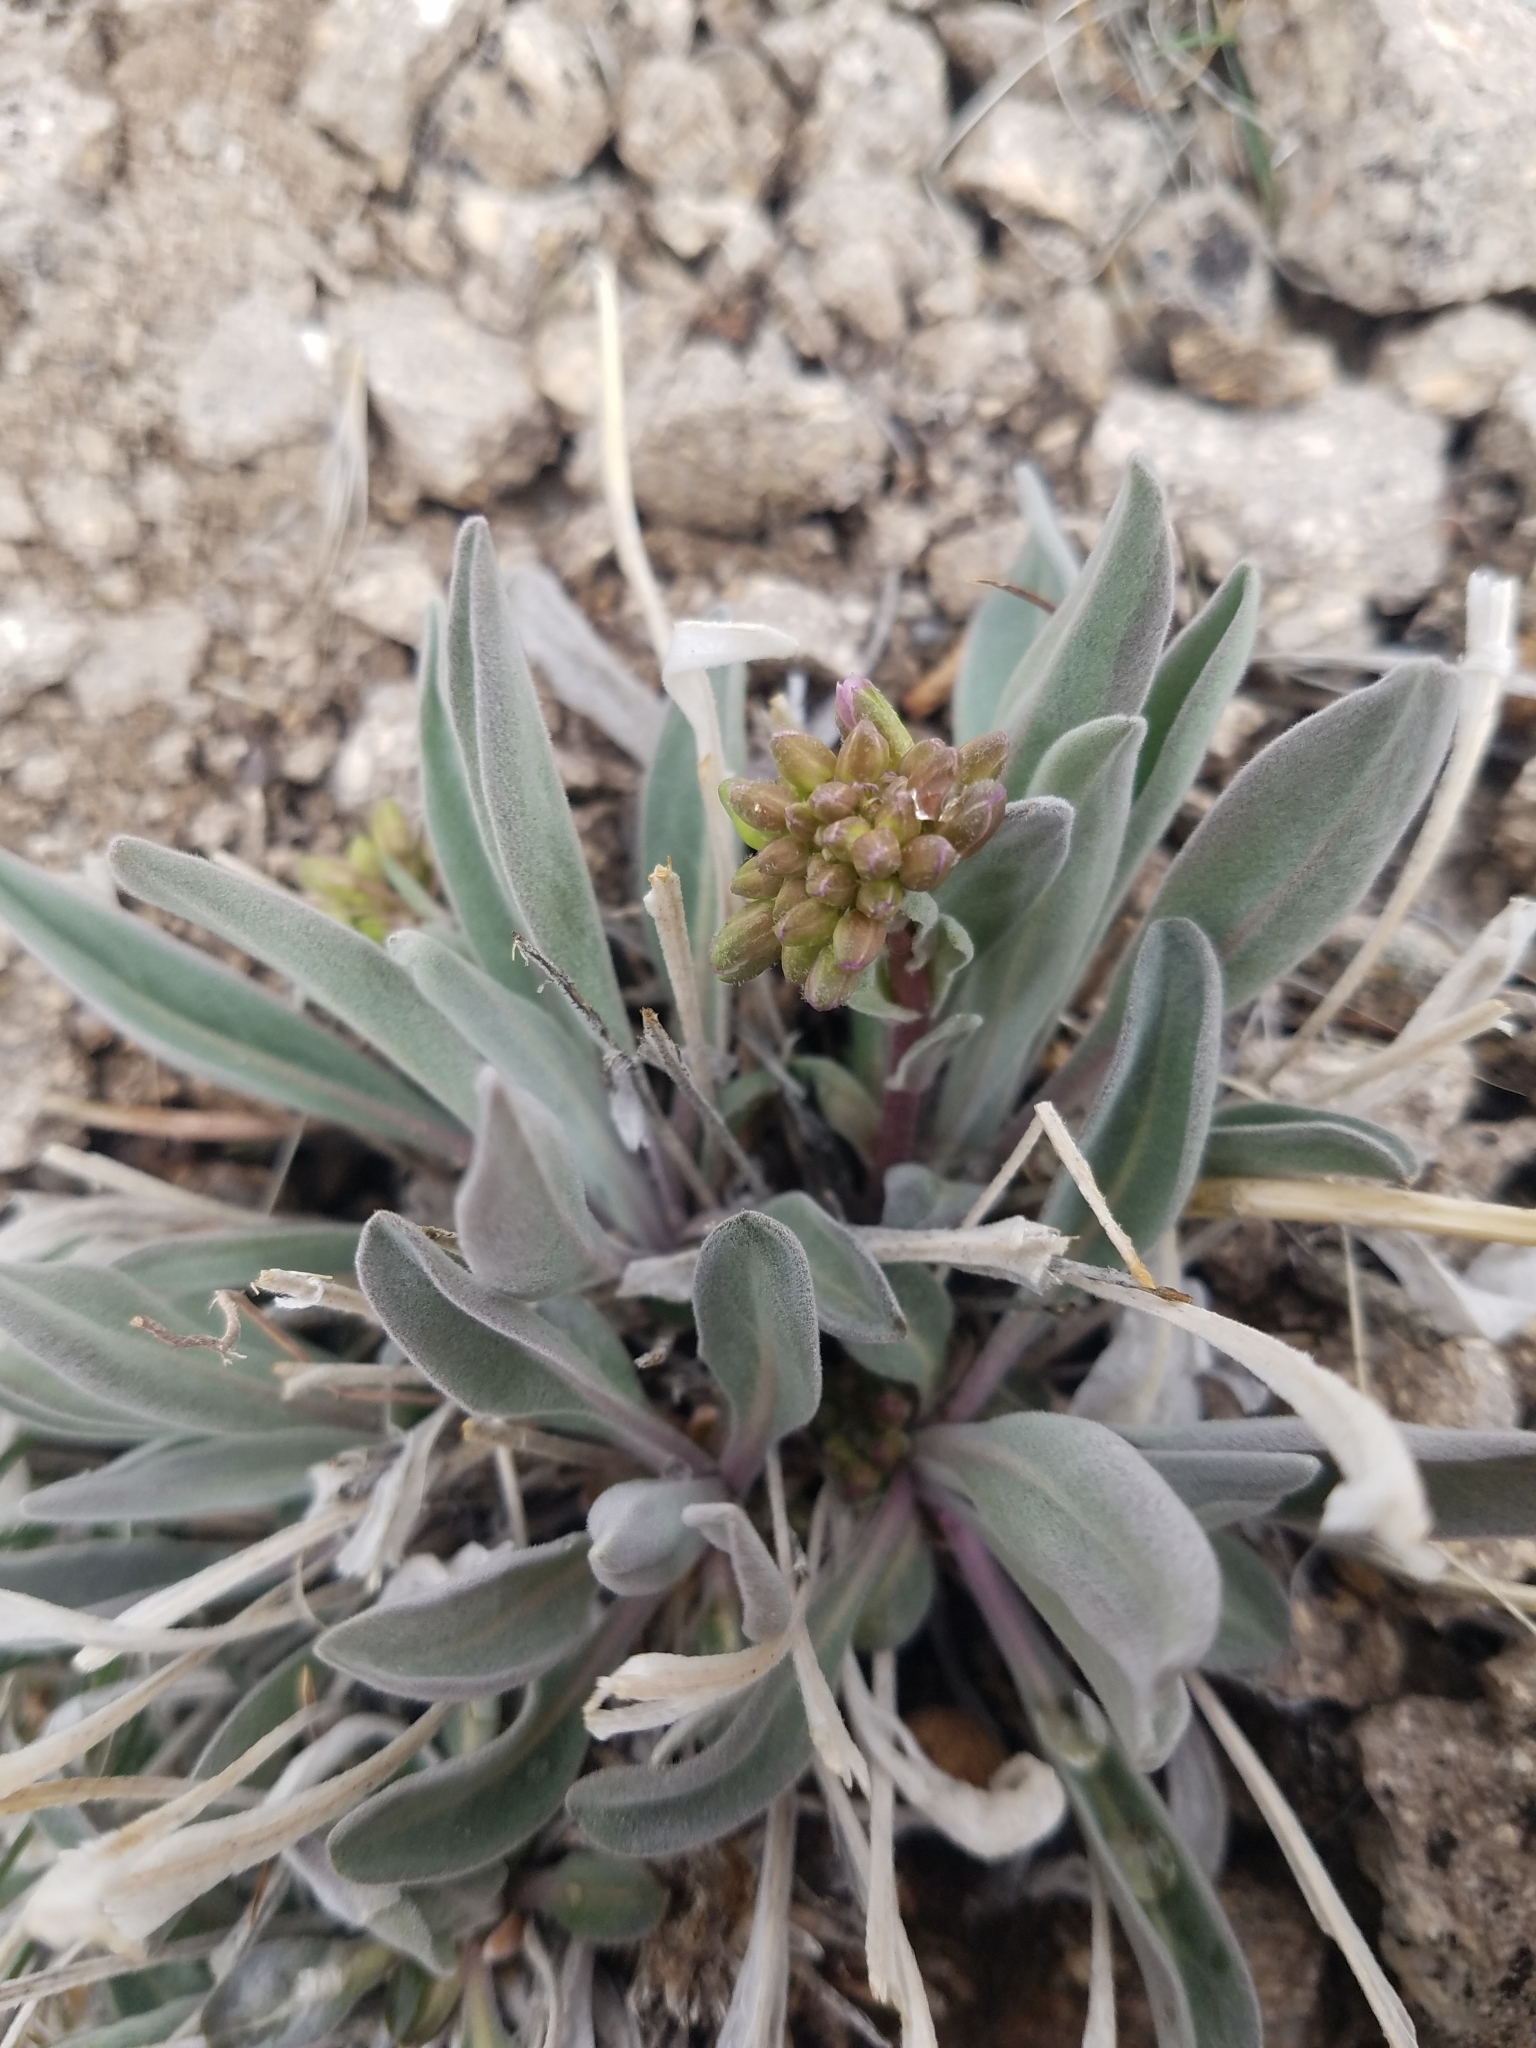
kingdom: Plantae
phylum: Tracheophyta
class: Magnoliopsida
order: Brassicales
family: Brassicaceae
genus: Phoenicaulis
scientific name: Phoenicaulis cheiranthoides
